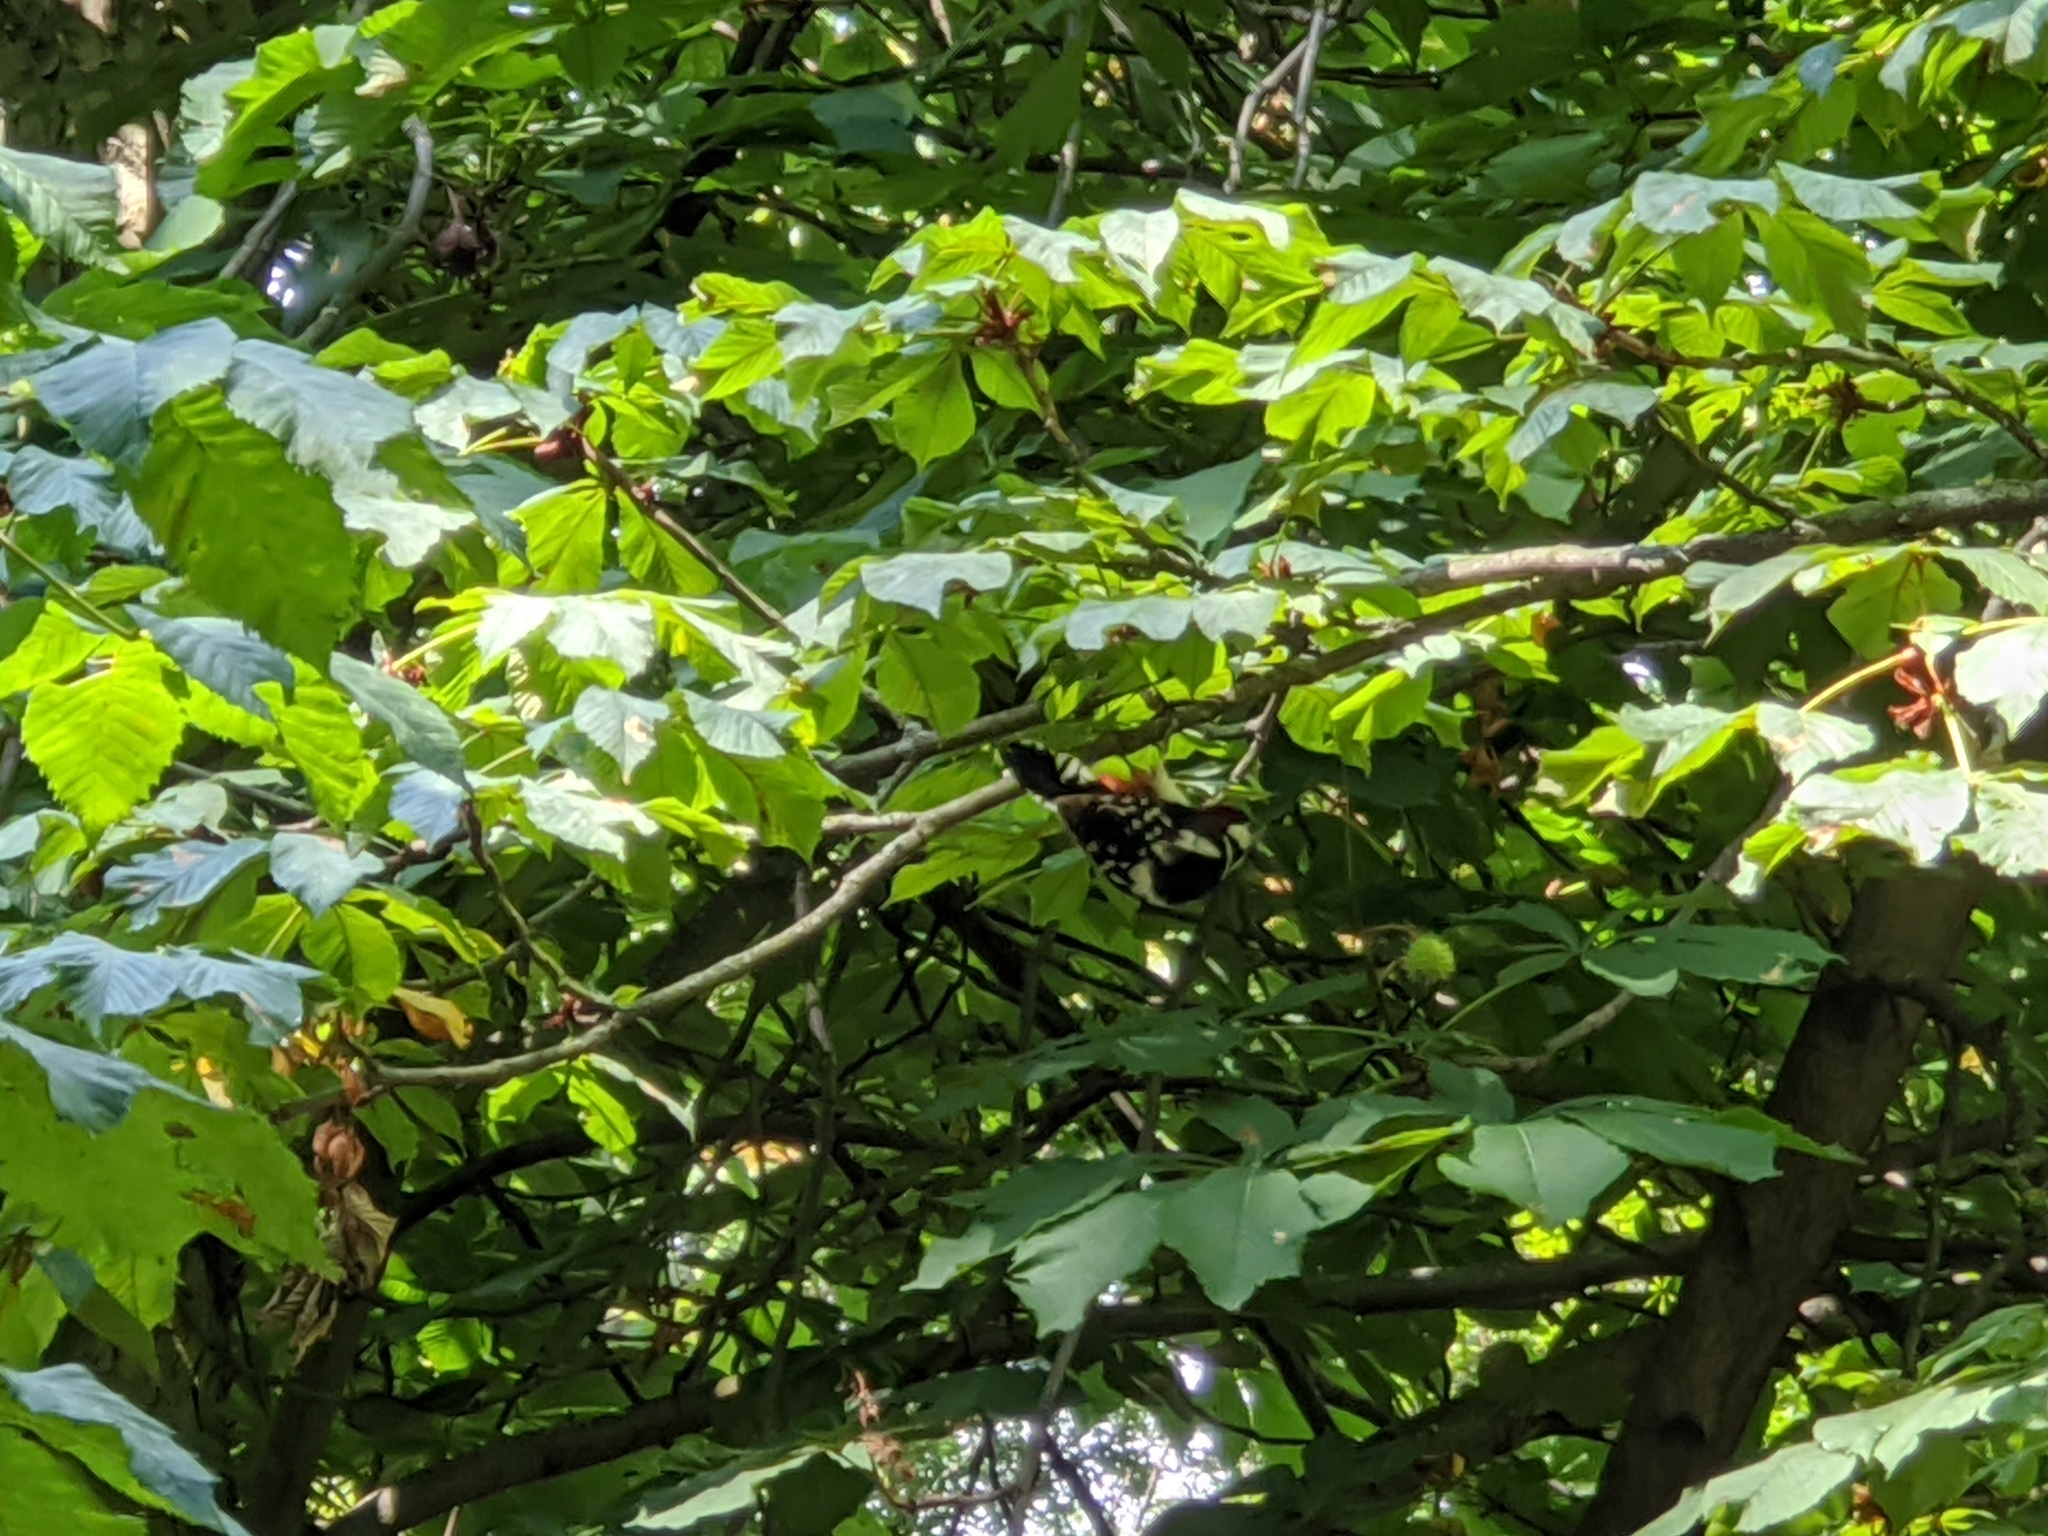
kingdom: Animalia
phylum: Chordata
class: Aves
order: Piciformes
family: Picidae
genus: Dendrocopos
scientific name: Dendrocopos major
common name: Great spotted woodpecker
